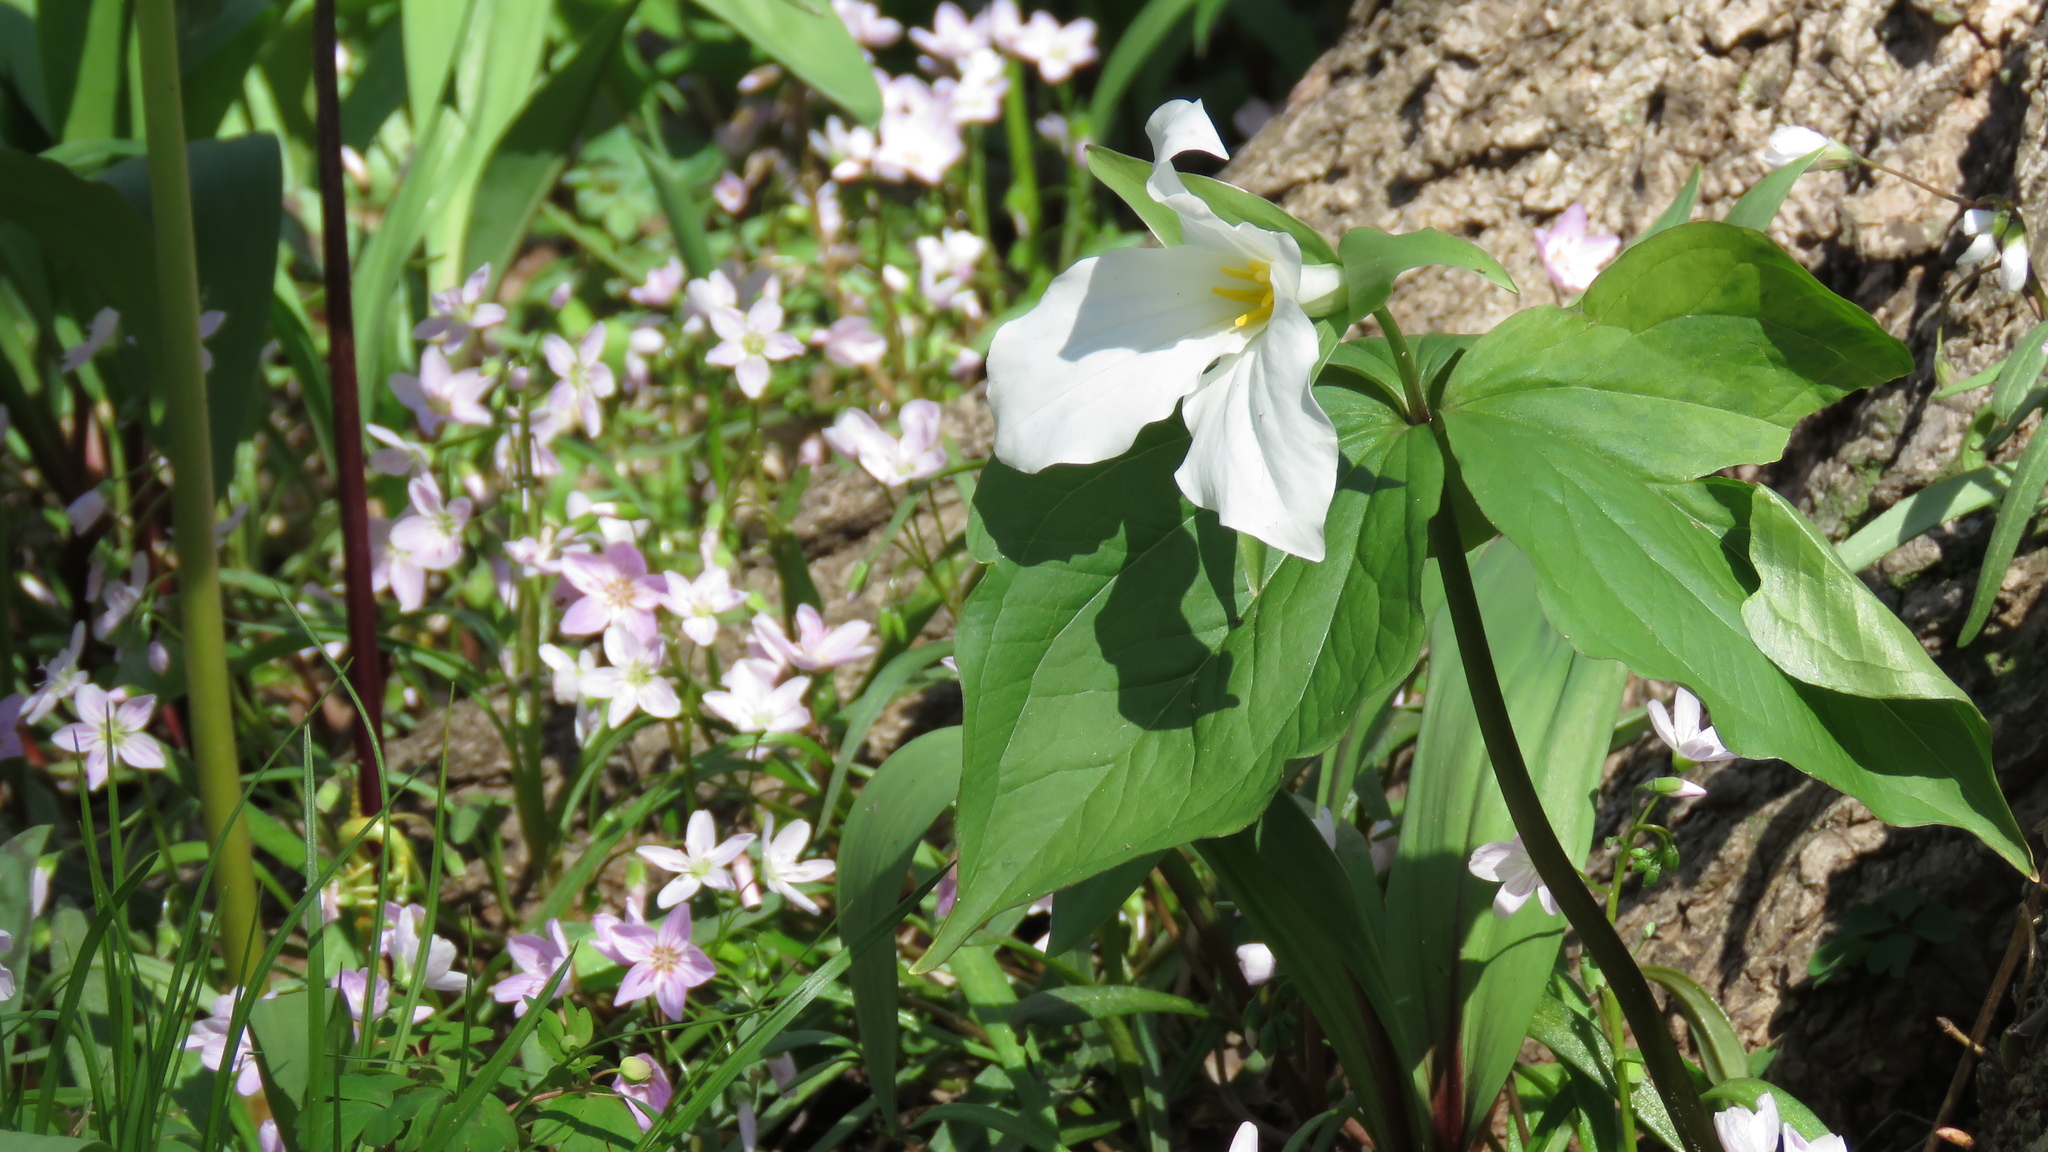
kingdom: Plantae
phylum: Tracheophyta
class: Liliopsida
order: Liliales
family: Melanthiaceae
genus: Trillium
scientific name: Trillium grandiflorum
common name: Great white trillium
